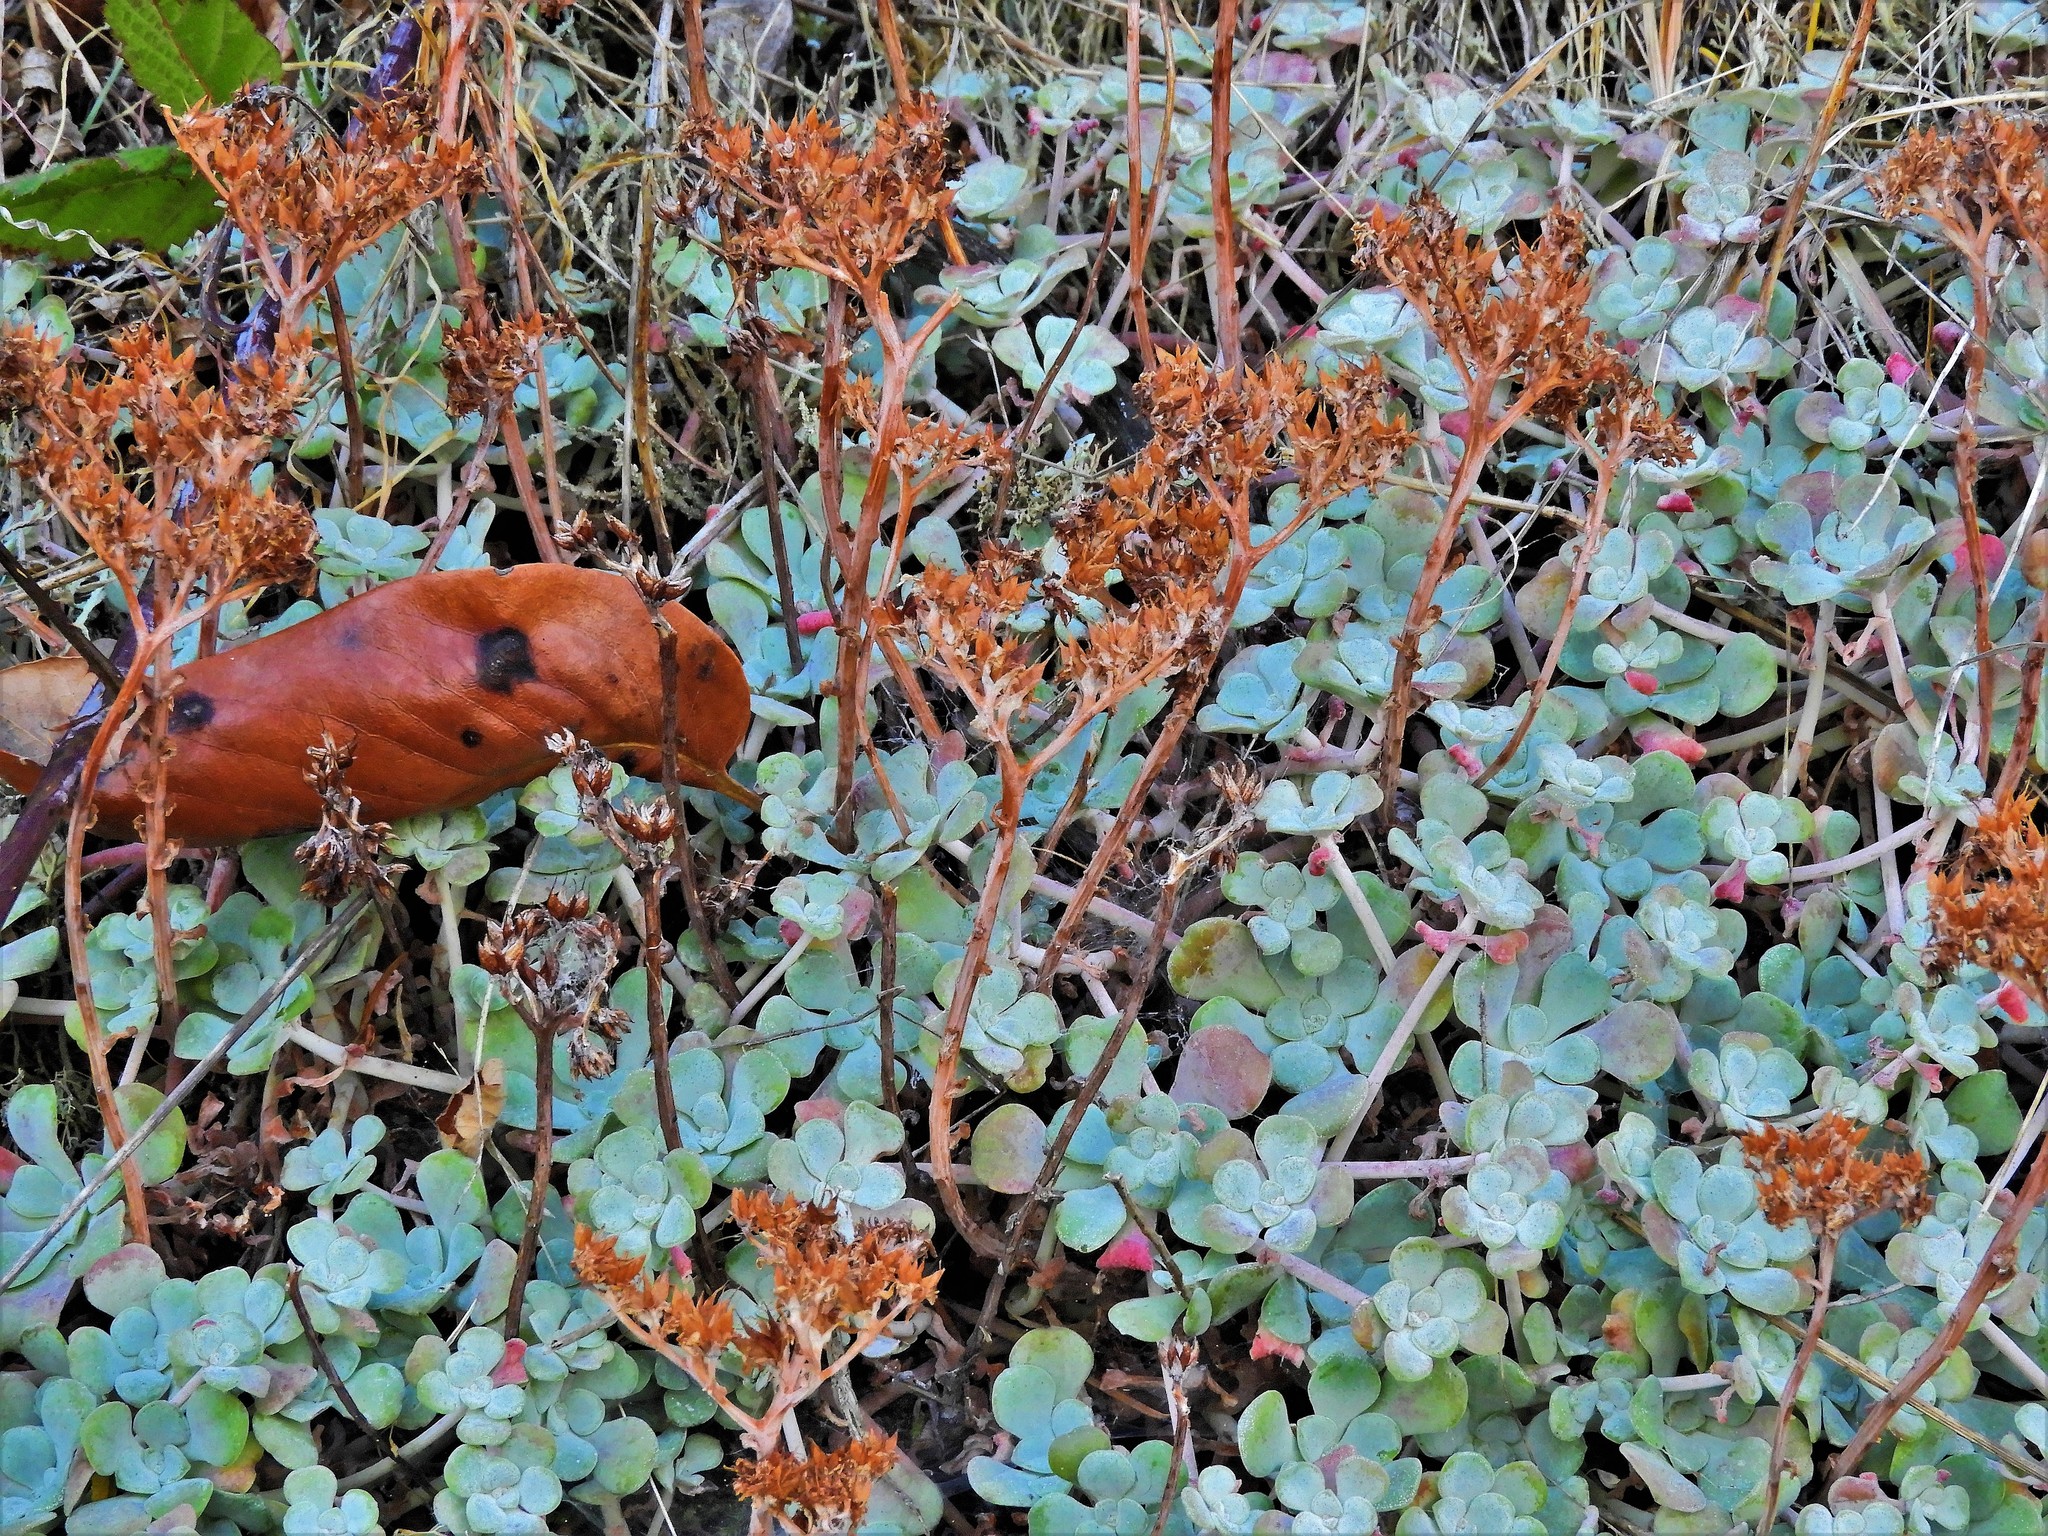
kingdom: Plantae
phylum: Tracheophyta
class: Magnoliopsida
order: Saxifragales
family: Crassulaceae
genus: Sedum
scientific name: Sedum spathulifolium
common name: Colorado stonecrop
